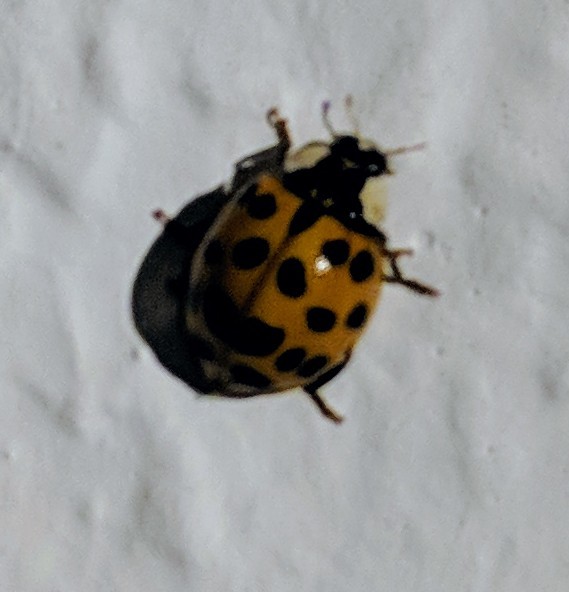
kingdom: Animalia
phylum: Arthropoda
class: Insecta
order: Coleoptera
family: Coccinellidae
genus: Harmonia
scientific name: Harmonia axyridis
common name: Harlequin ladybird
